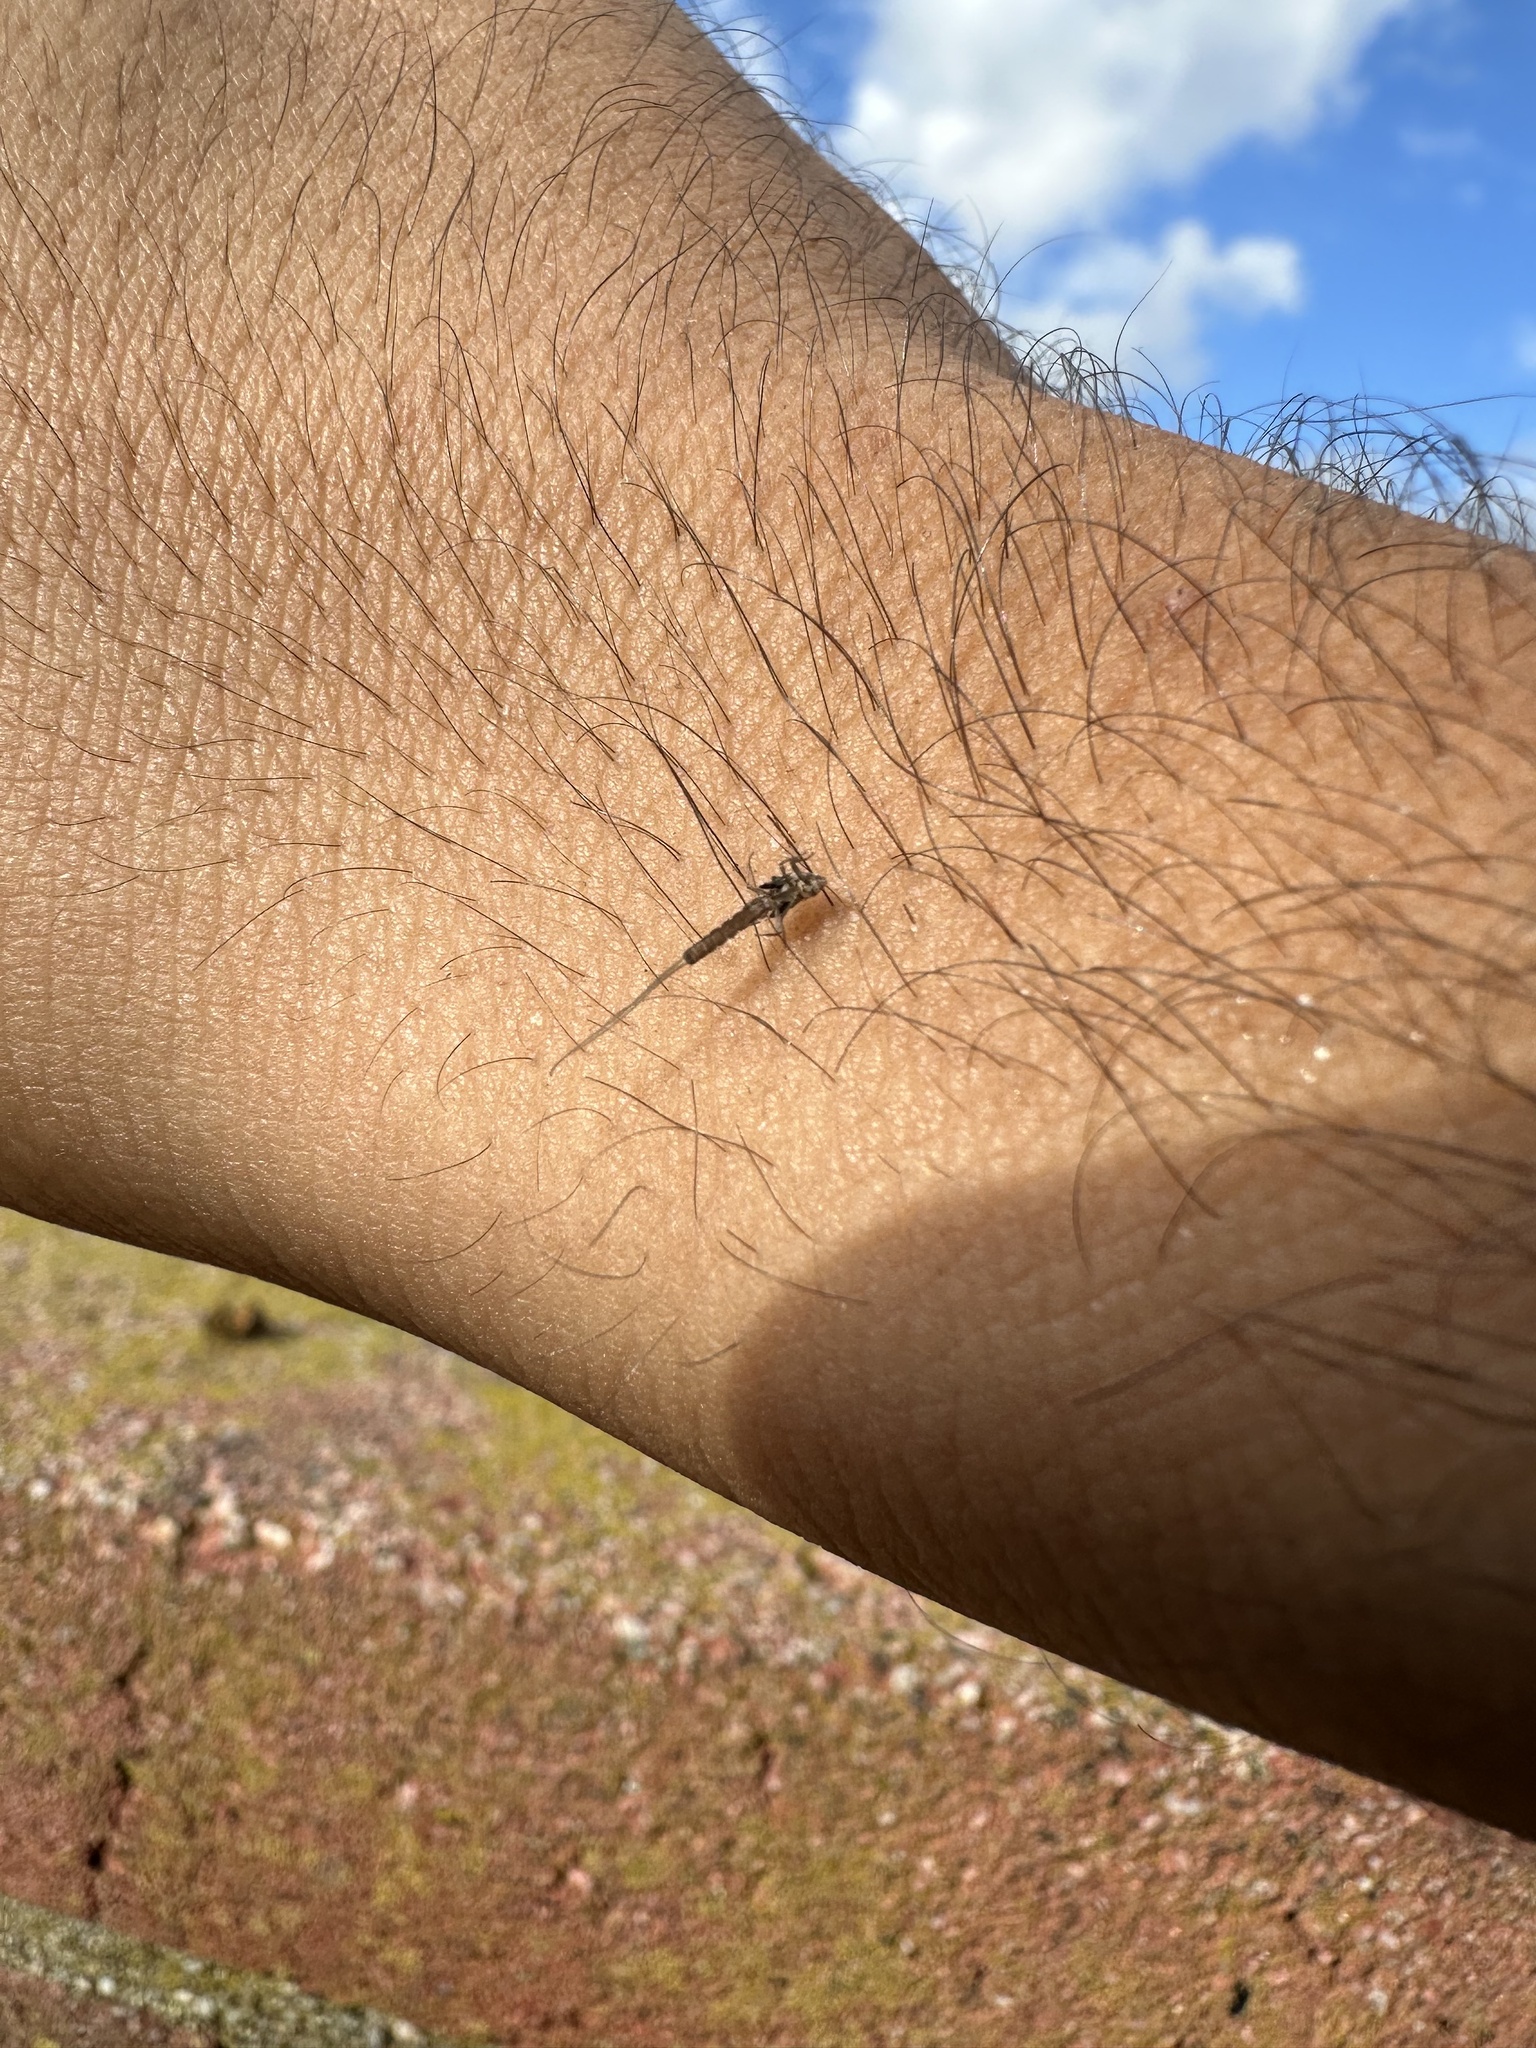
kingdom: Animalia
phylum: Arthropoda
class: Insecta
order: Ephemeroptera
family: Baetidae
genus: Callibaetis
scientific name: Callibaetis pictus
